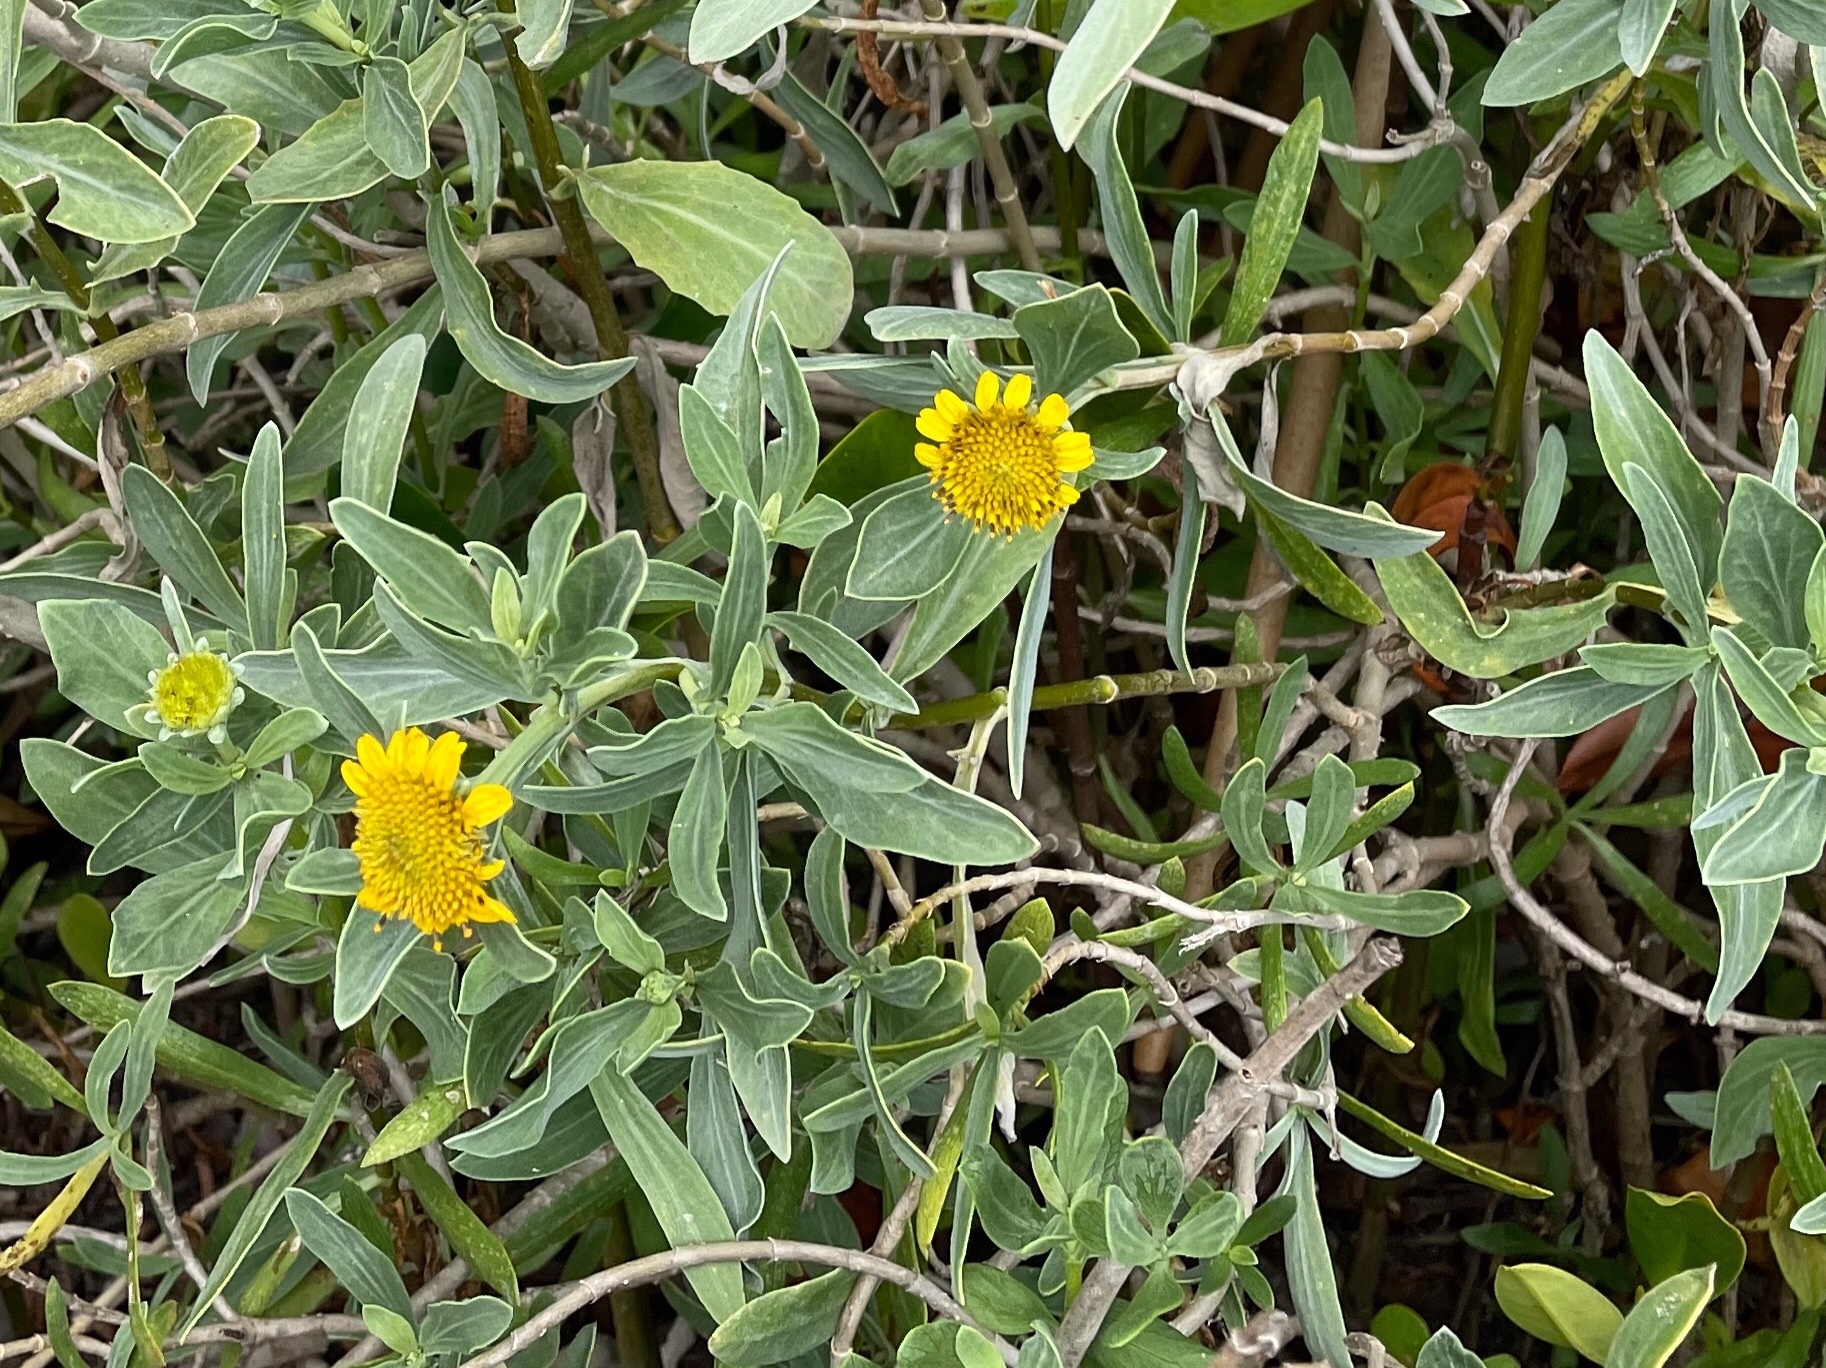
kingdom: Plantae
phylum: Tracheophyta
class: Magnoliopsida
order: Asterales
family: Asteraceae
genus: Borrichia
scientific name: Borrichia frutescens
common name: Sea oxeye
